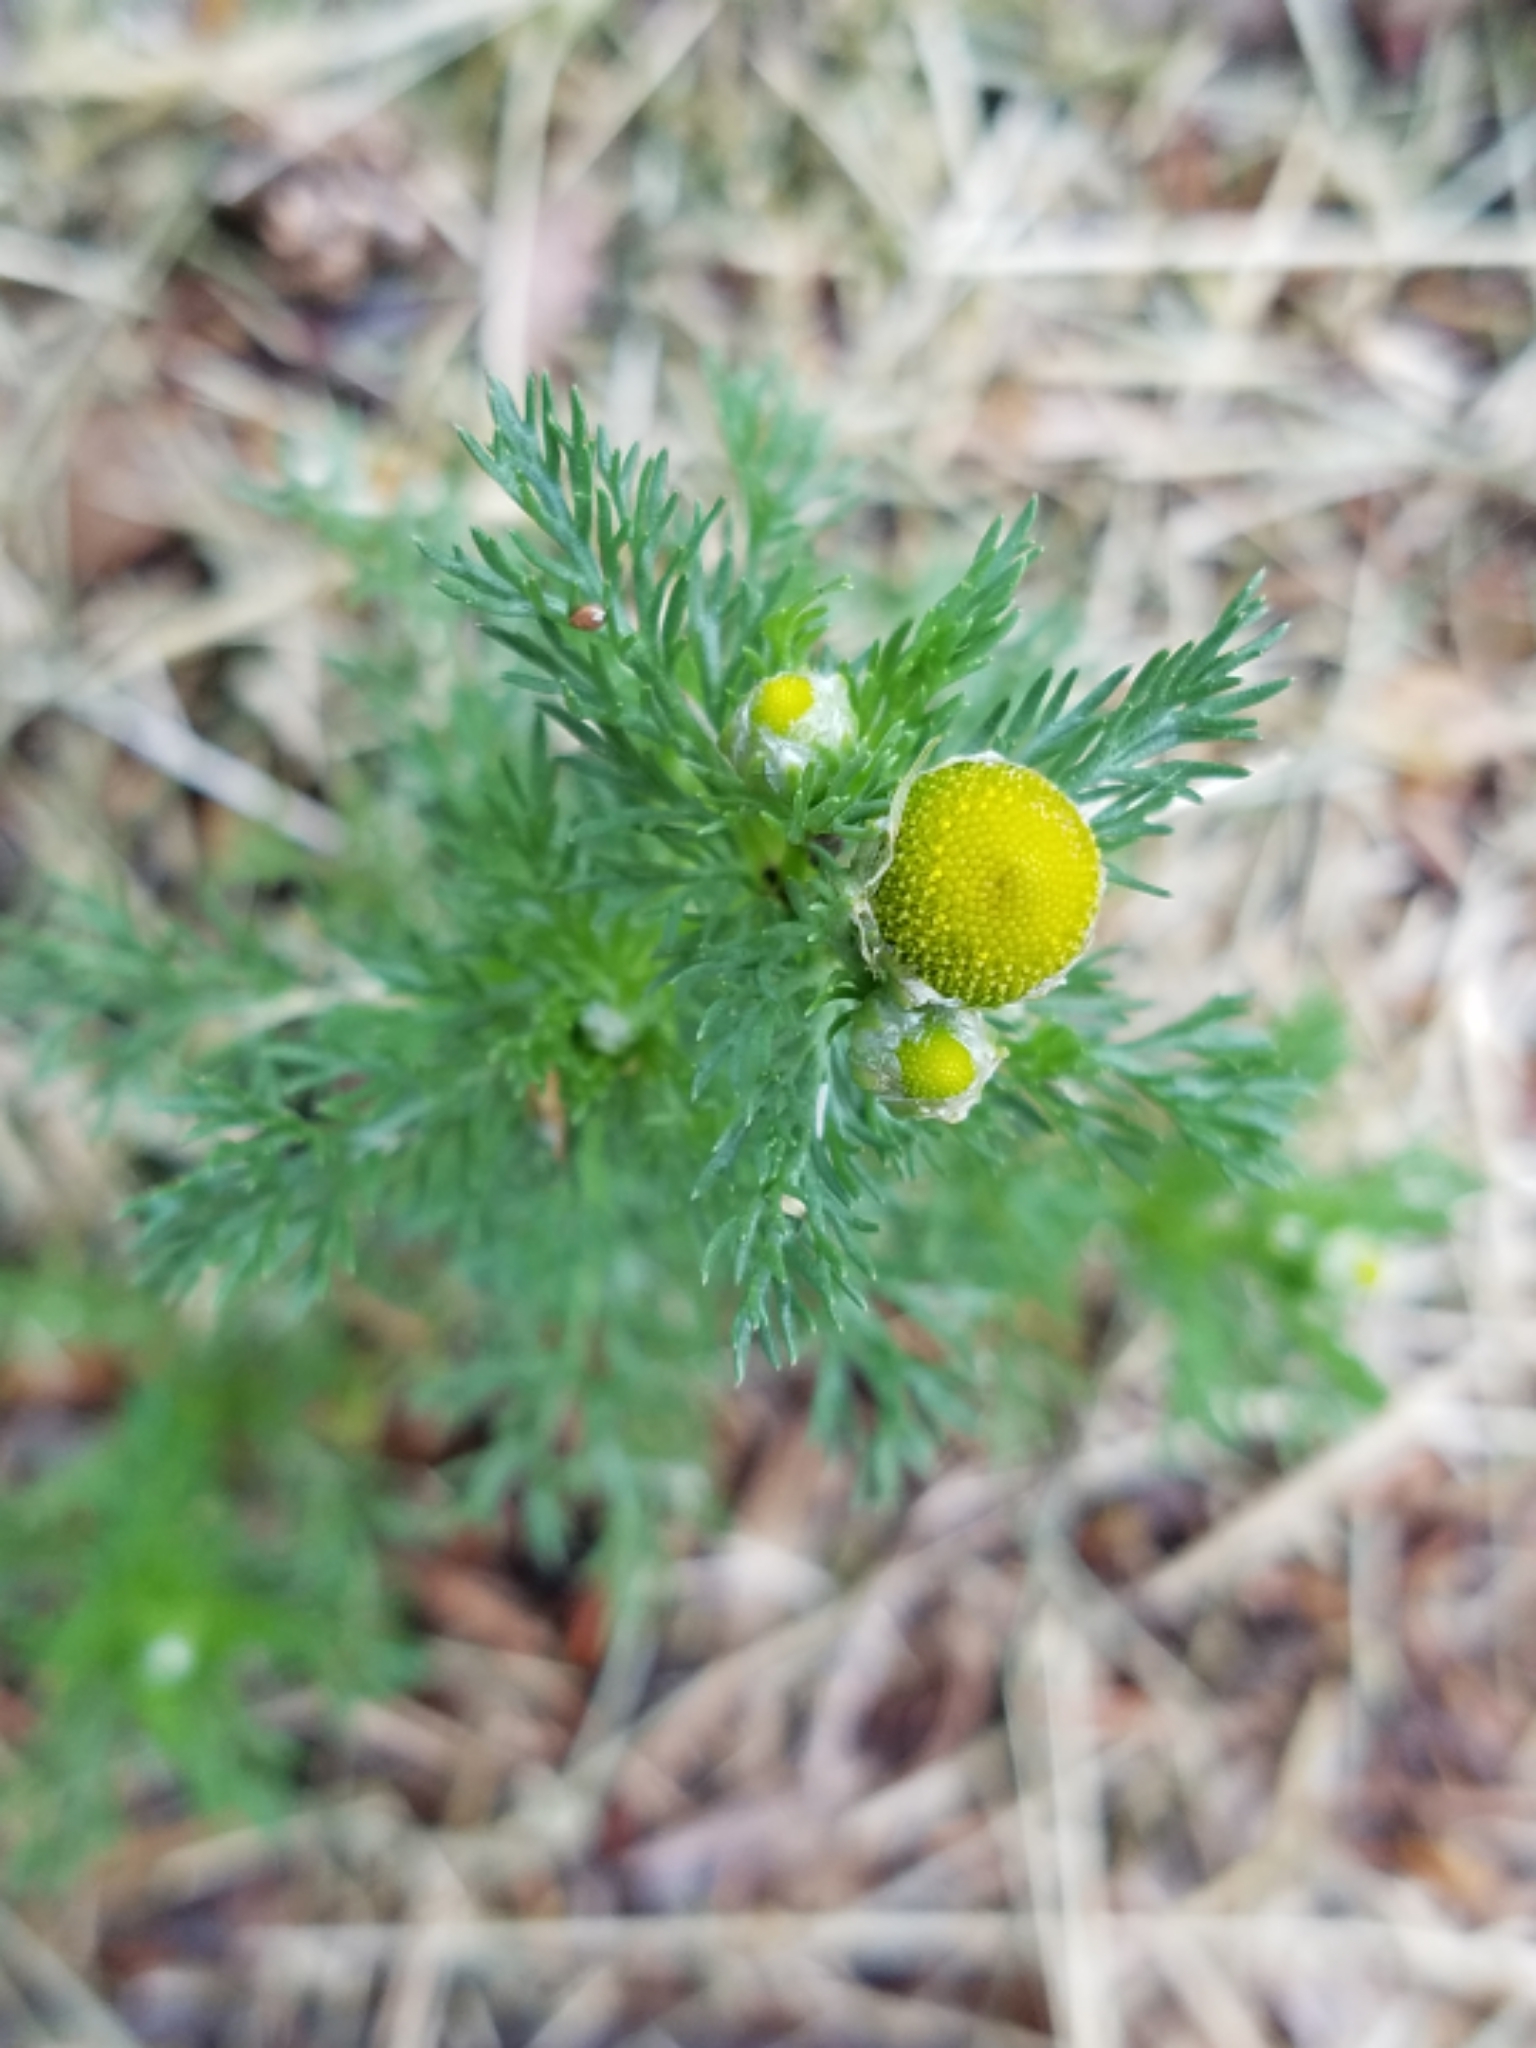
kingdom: Plantae
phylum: Tracheophyta
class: Magnoliopsida
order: Asterales
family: Asteraceae
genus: Matricaria
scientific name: Matricaria discoidea
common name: Disc mayweed
